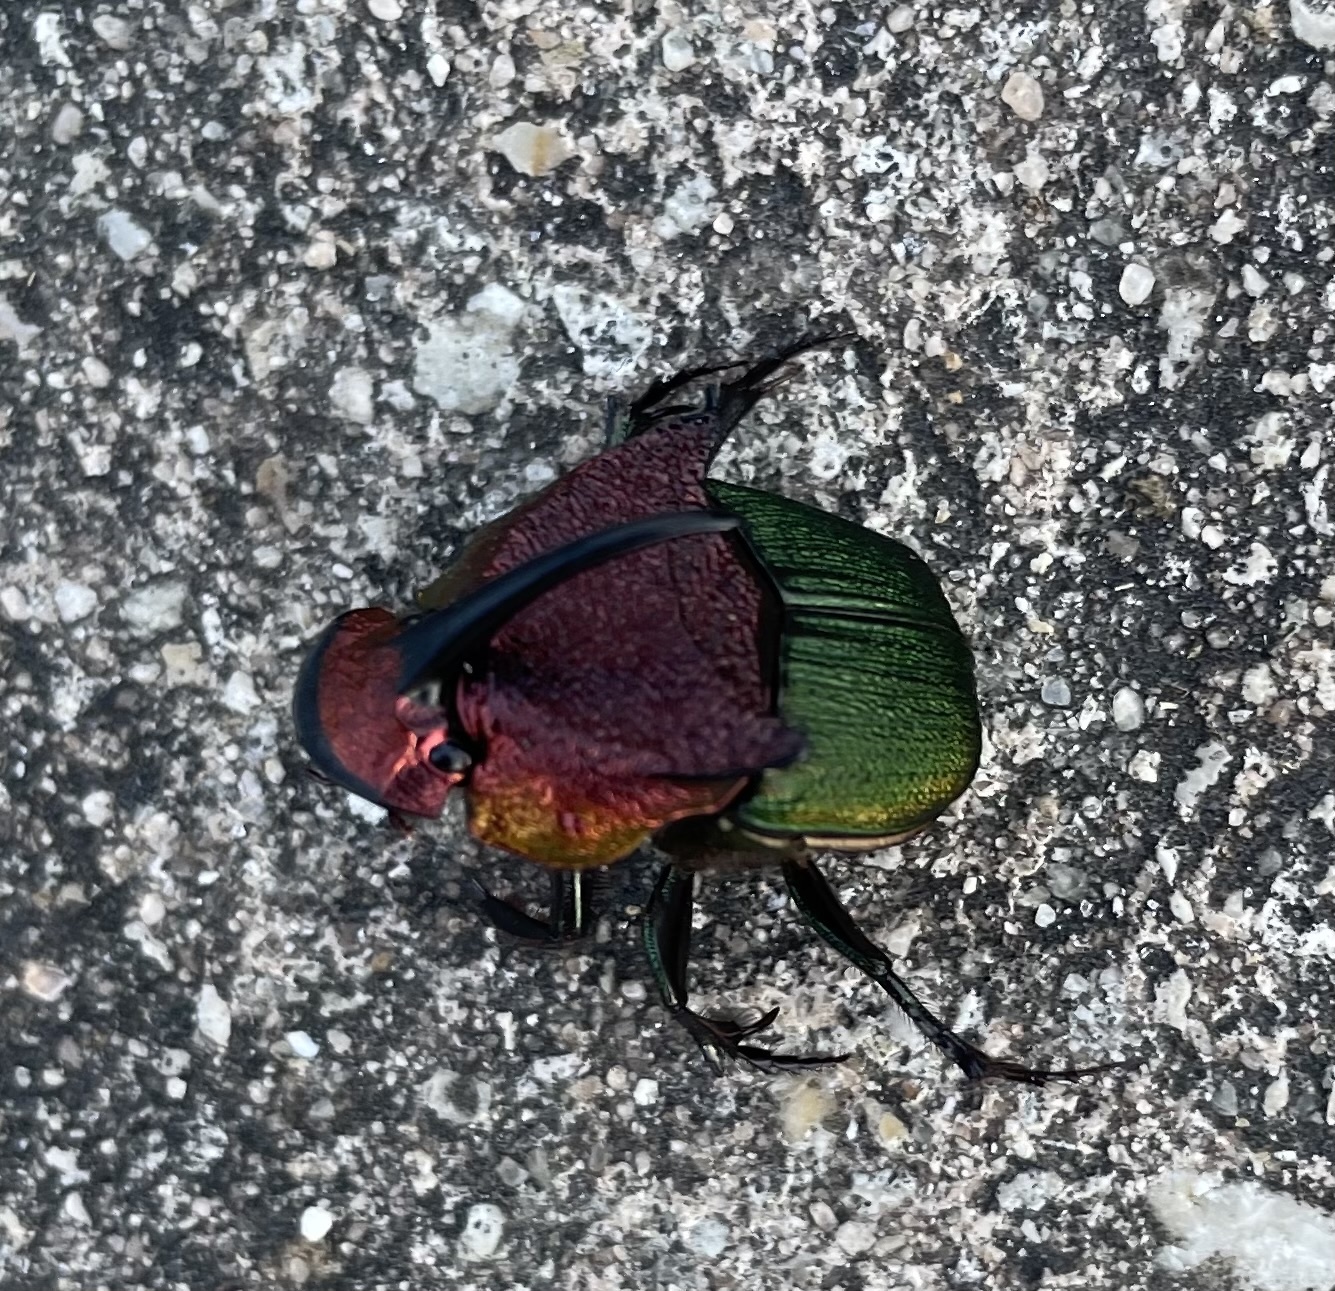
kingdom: Animalia
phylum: Arthropoda
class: Insecta
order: Coleoptera
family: Scarabaeidae
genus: Phanaeus
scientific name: Phanaeus vindex
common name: Rainbow scarab
